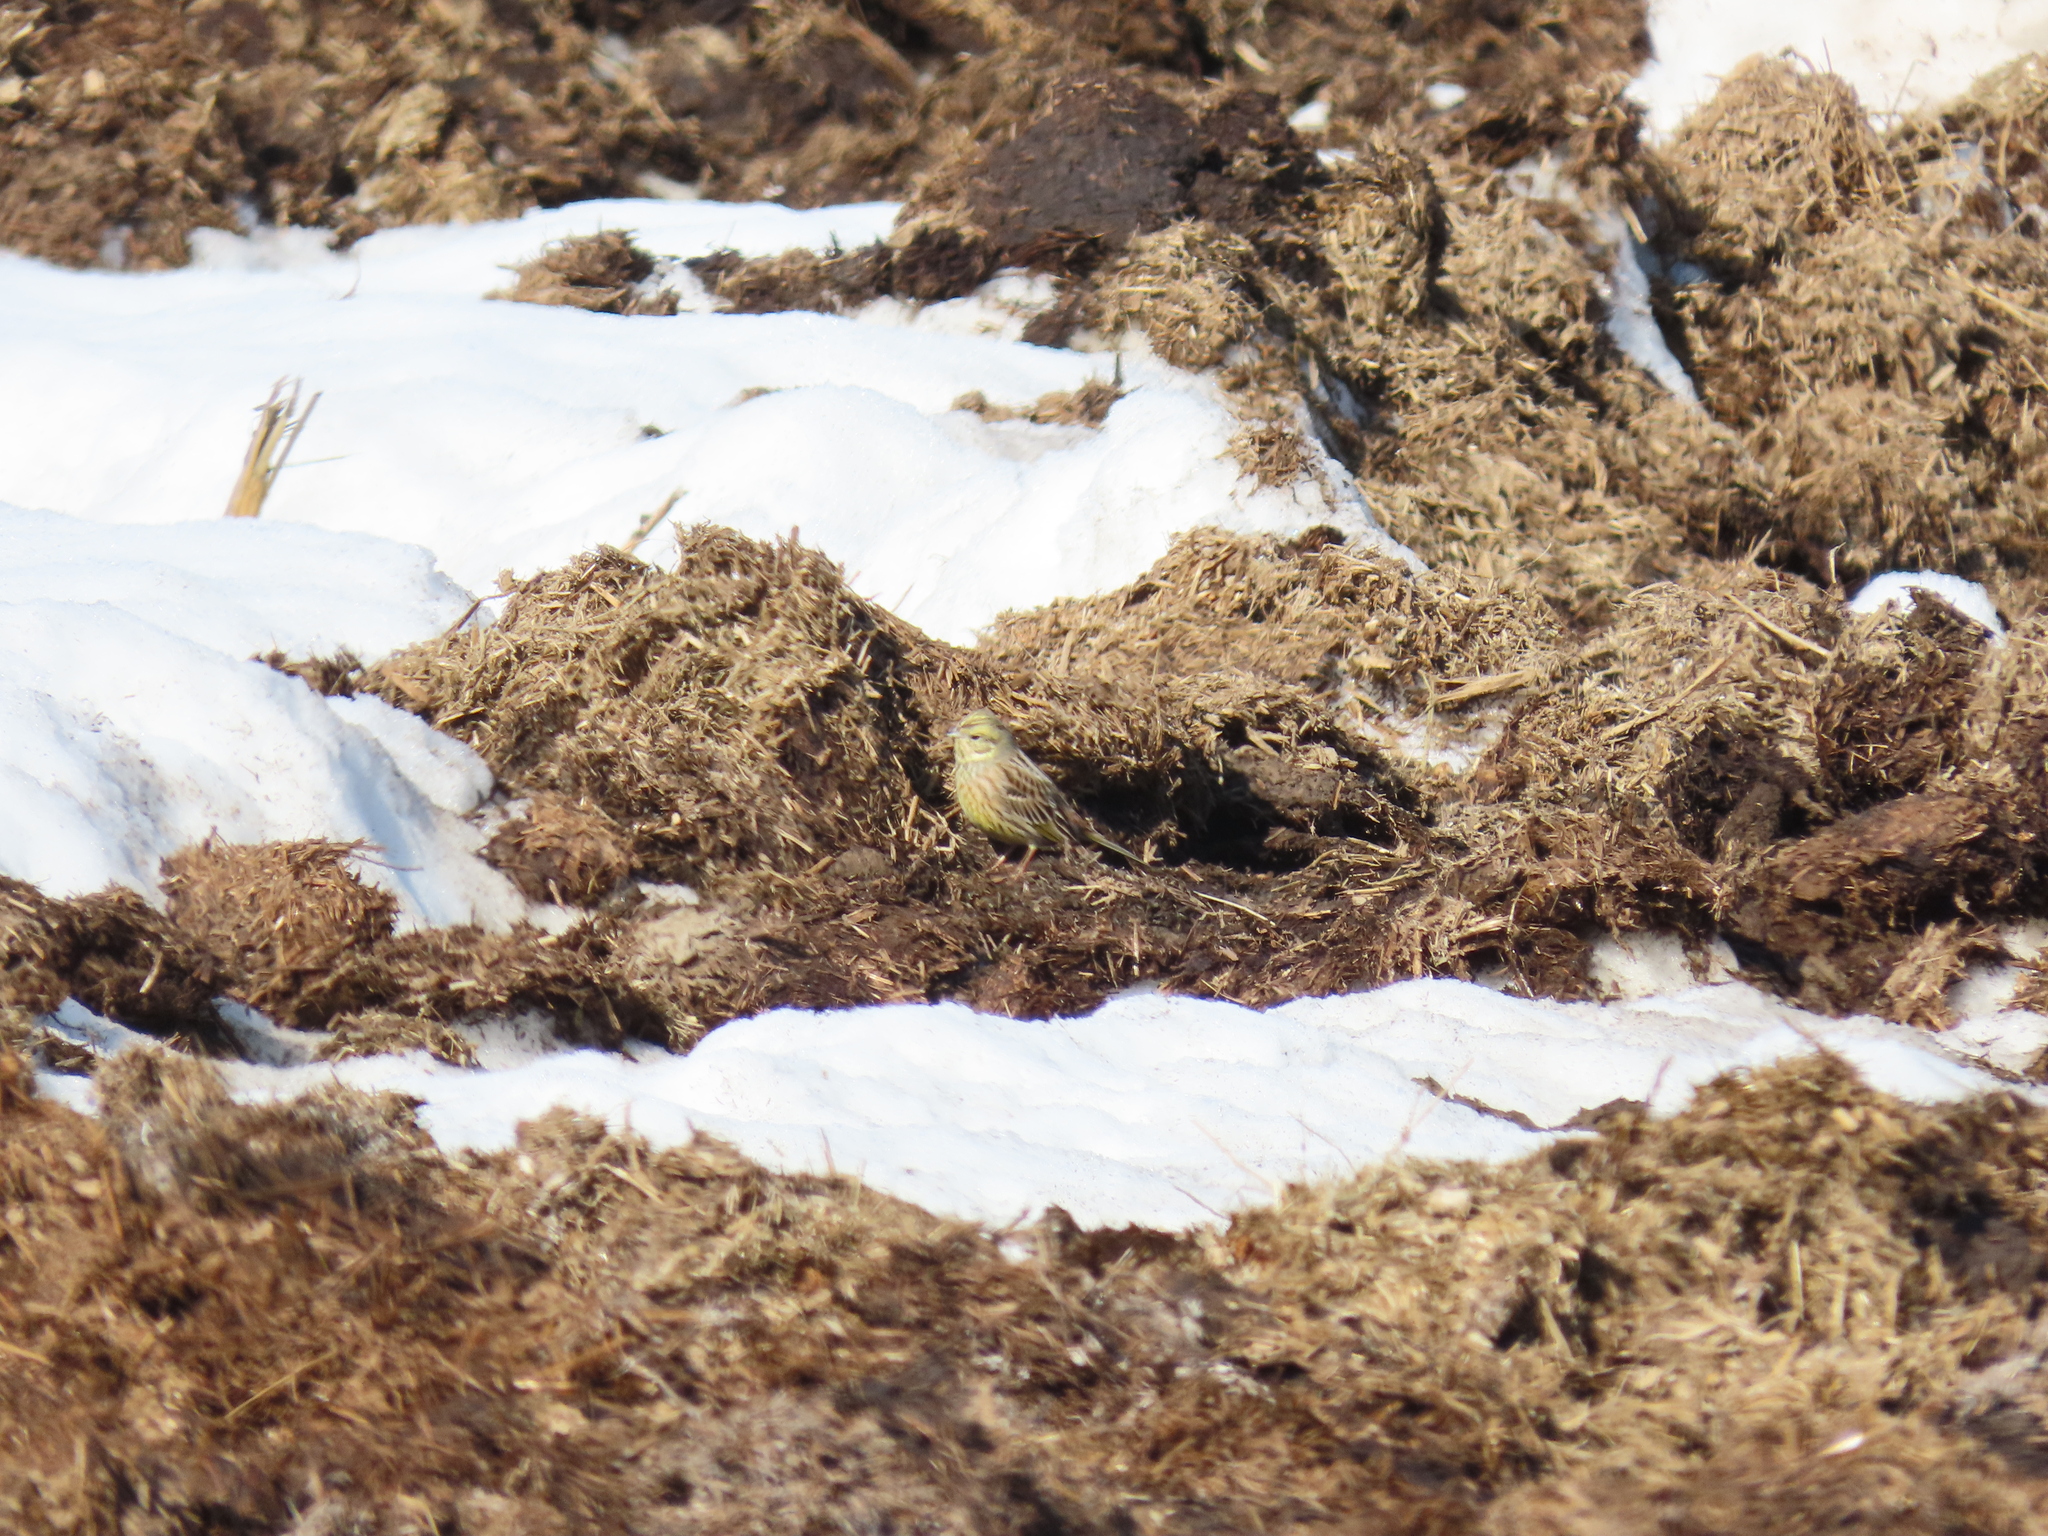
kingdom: Animalia
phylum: Chordata
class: Aves
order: Passeriformes
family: Emberizidae
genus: Emberiza
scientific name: Emberiza citrinella
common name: Yellowhammer
